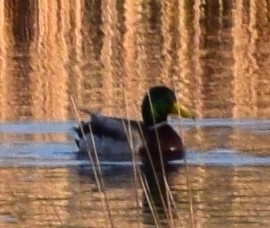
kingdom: Animalia
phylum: Chordata
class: Aves
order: Anseriformes
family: Anatidae
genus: Anas
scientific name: Anas platyrhynchos
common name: Mallard
